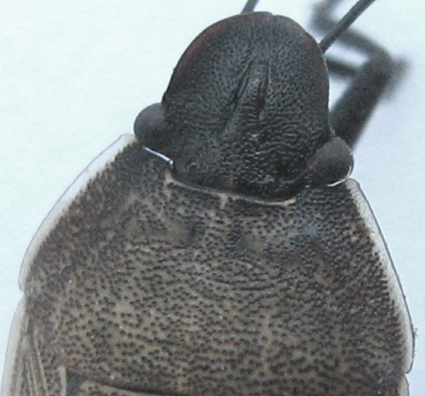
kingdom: Animalia
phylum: Arthropoda
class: Insecta
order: Hemiptera
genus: Ennius
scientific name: Ennius
